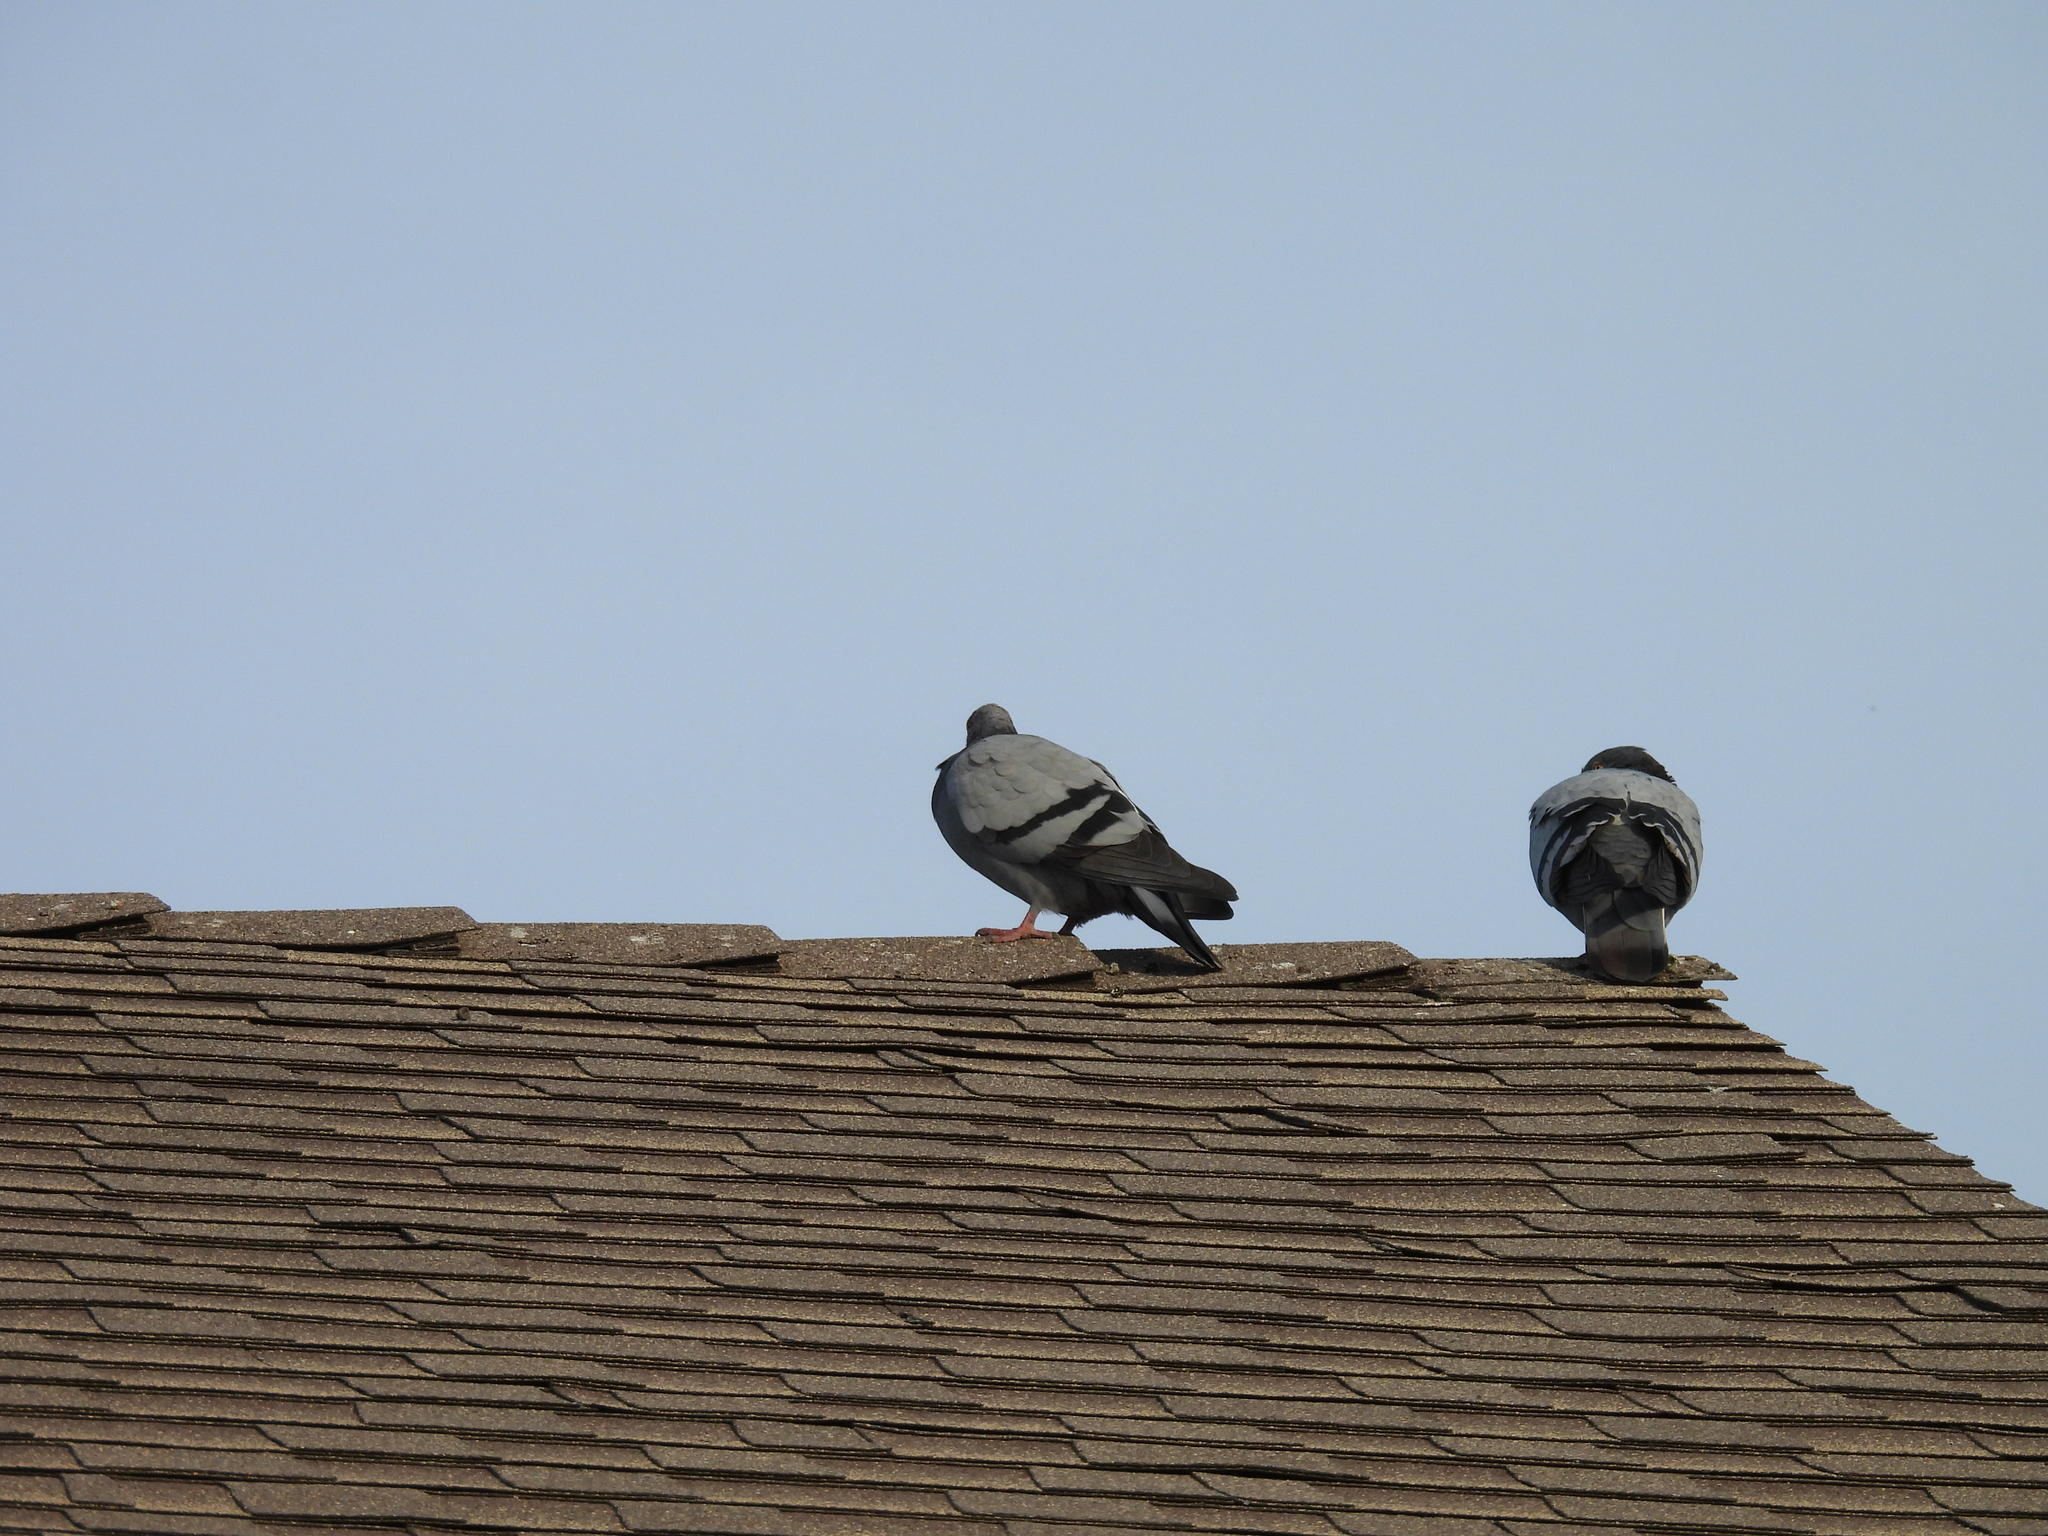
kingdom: Animalia
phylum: Chordata
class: Aves
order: Columbiformes
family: Columbidae
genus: Columba
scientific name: Columba livia
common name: Rock pigeon
